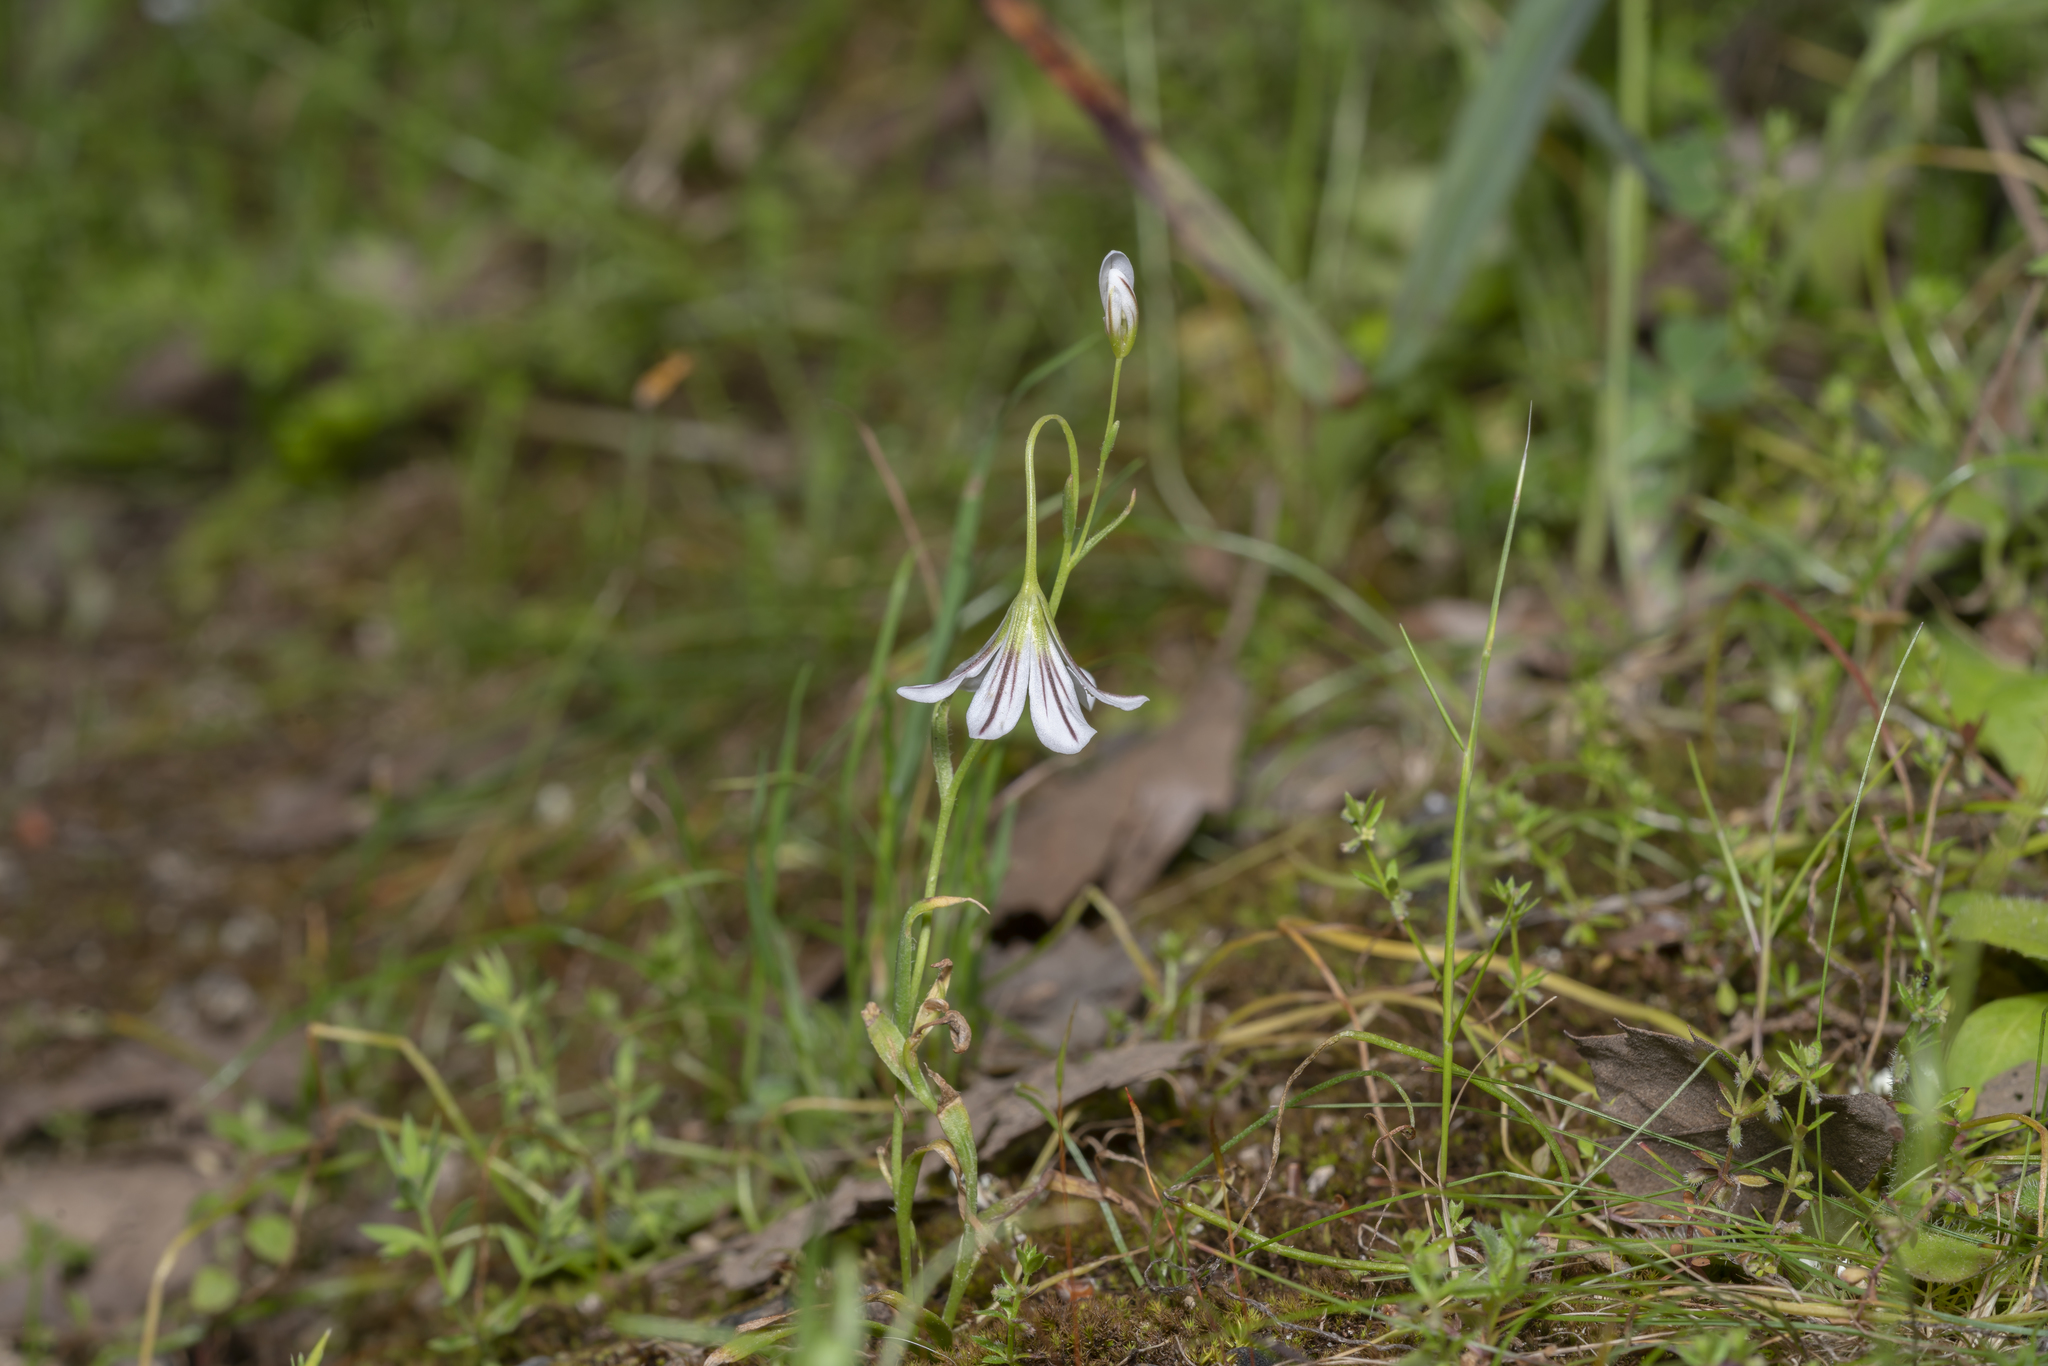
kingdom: Plantae
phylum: Tracheophyta
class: Liliopsida
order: Liliales
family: Liliaceae
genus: Gagea
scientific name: Gagea graeca
